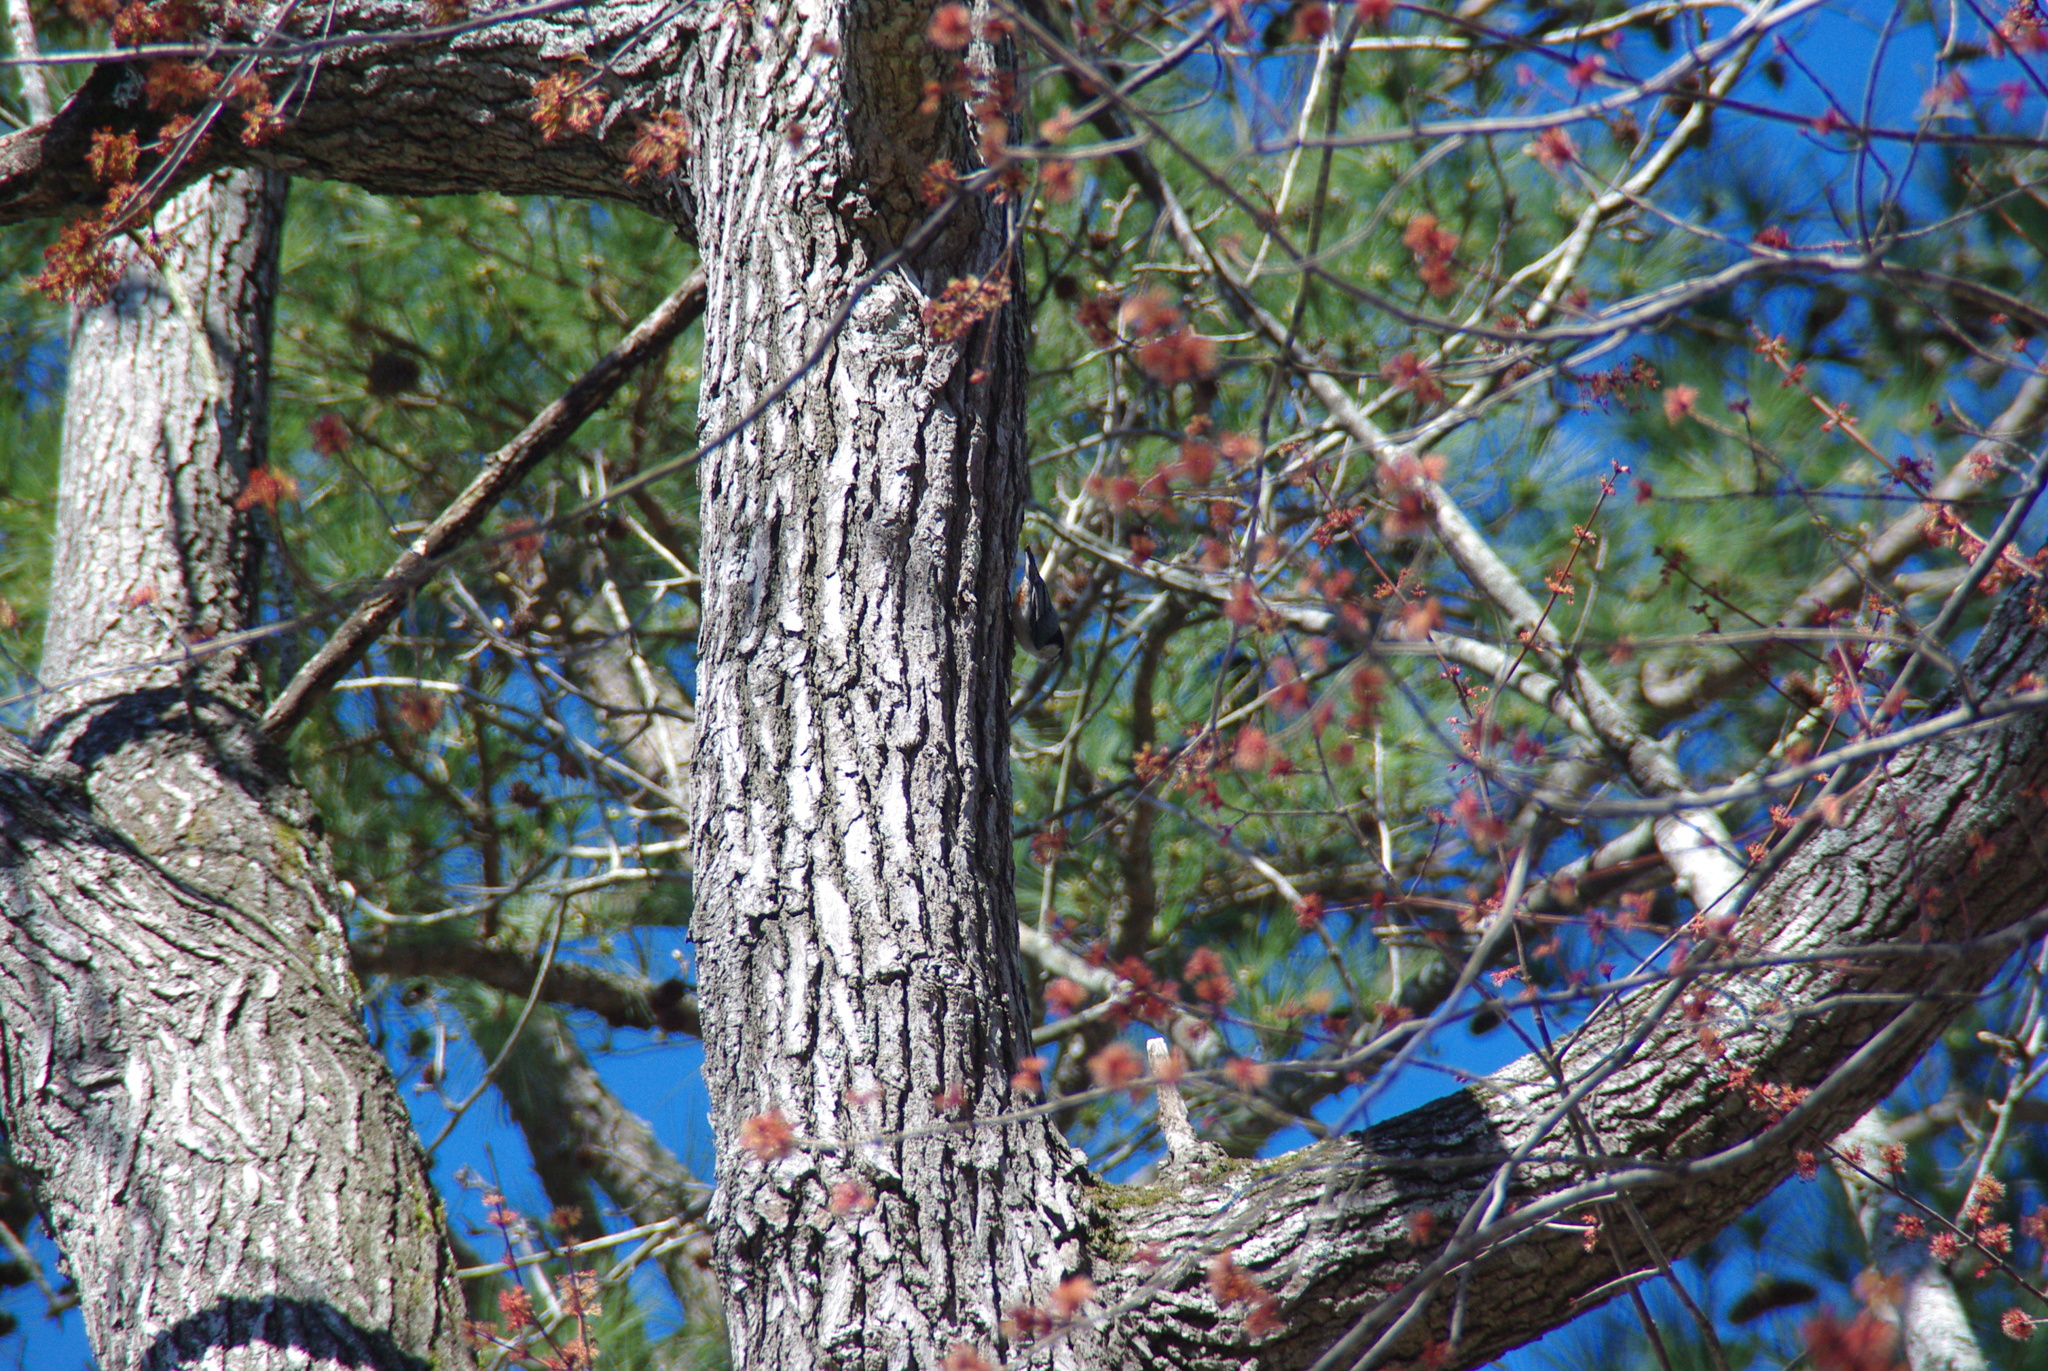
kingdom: Animalia
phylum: Chordata
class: Aves
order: Passeriformes
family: Sittidae
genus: Sitta
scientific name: Sitta carolinensis
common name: White-breasted nuthatch
